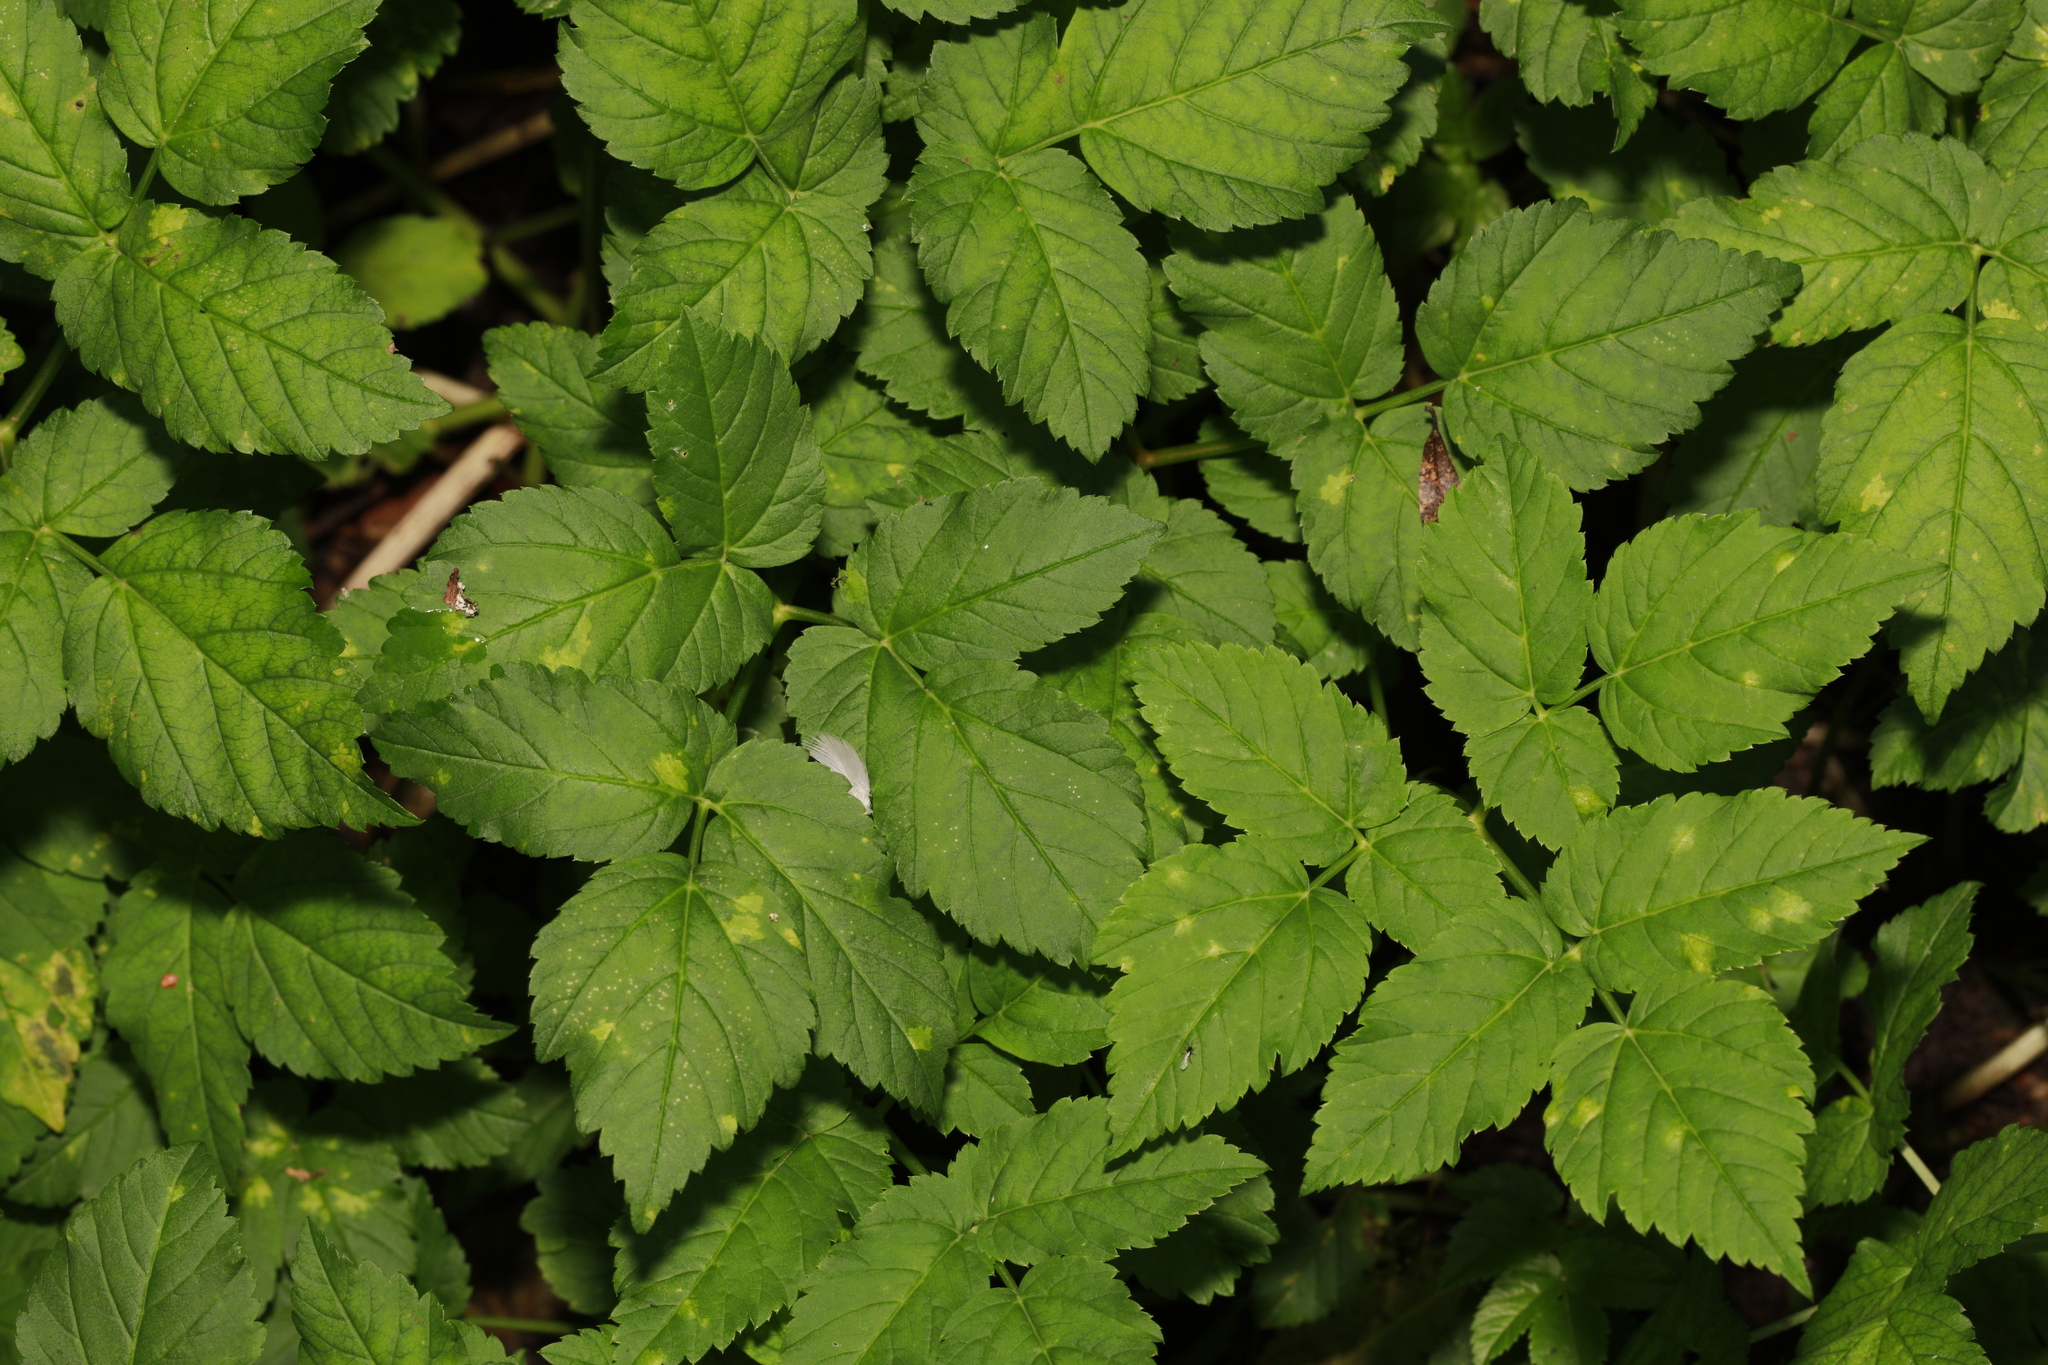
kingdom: Plantae
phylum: Tracheophyta
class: Magnoliopsida
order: Apiales
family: Apiaceae
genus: Aegopodium
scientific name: Aegopodium podagraria
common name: Ground-elder
